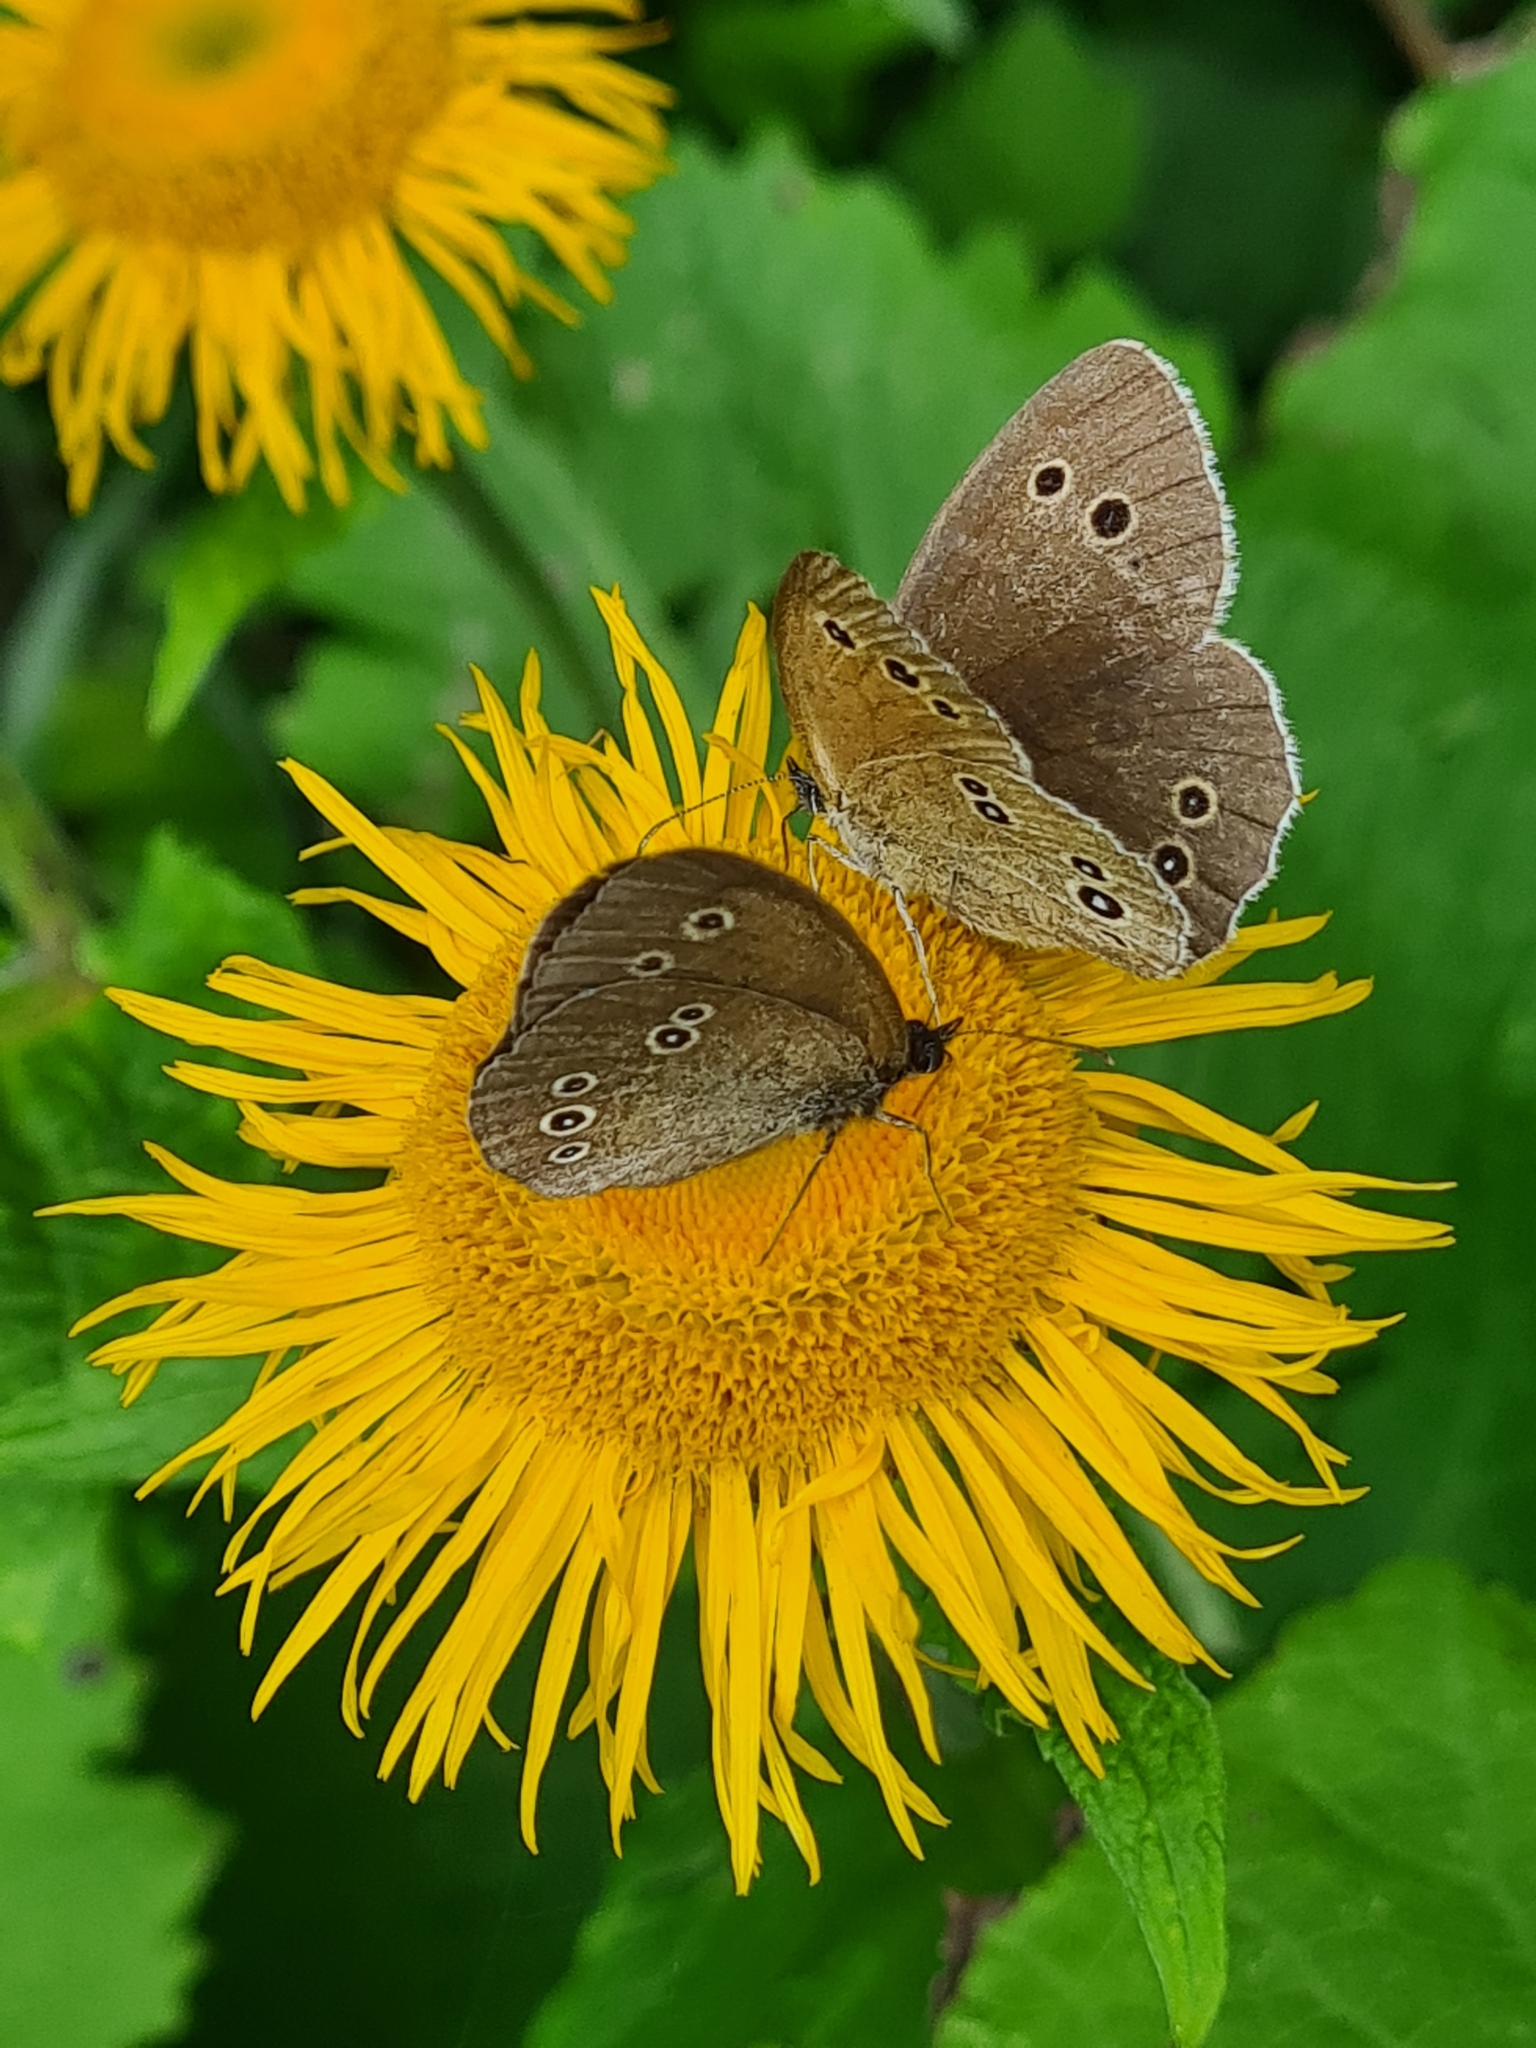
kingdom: Animalia
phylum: Arthropoda
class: Insecta
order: Lepidoptera
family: Nymphalidae
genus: Aphantopus
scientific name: Aphantopus hyperantus
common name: Ringlet
